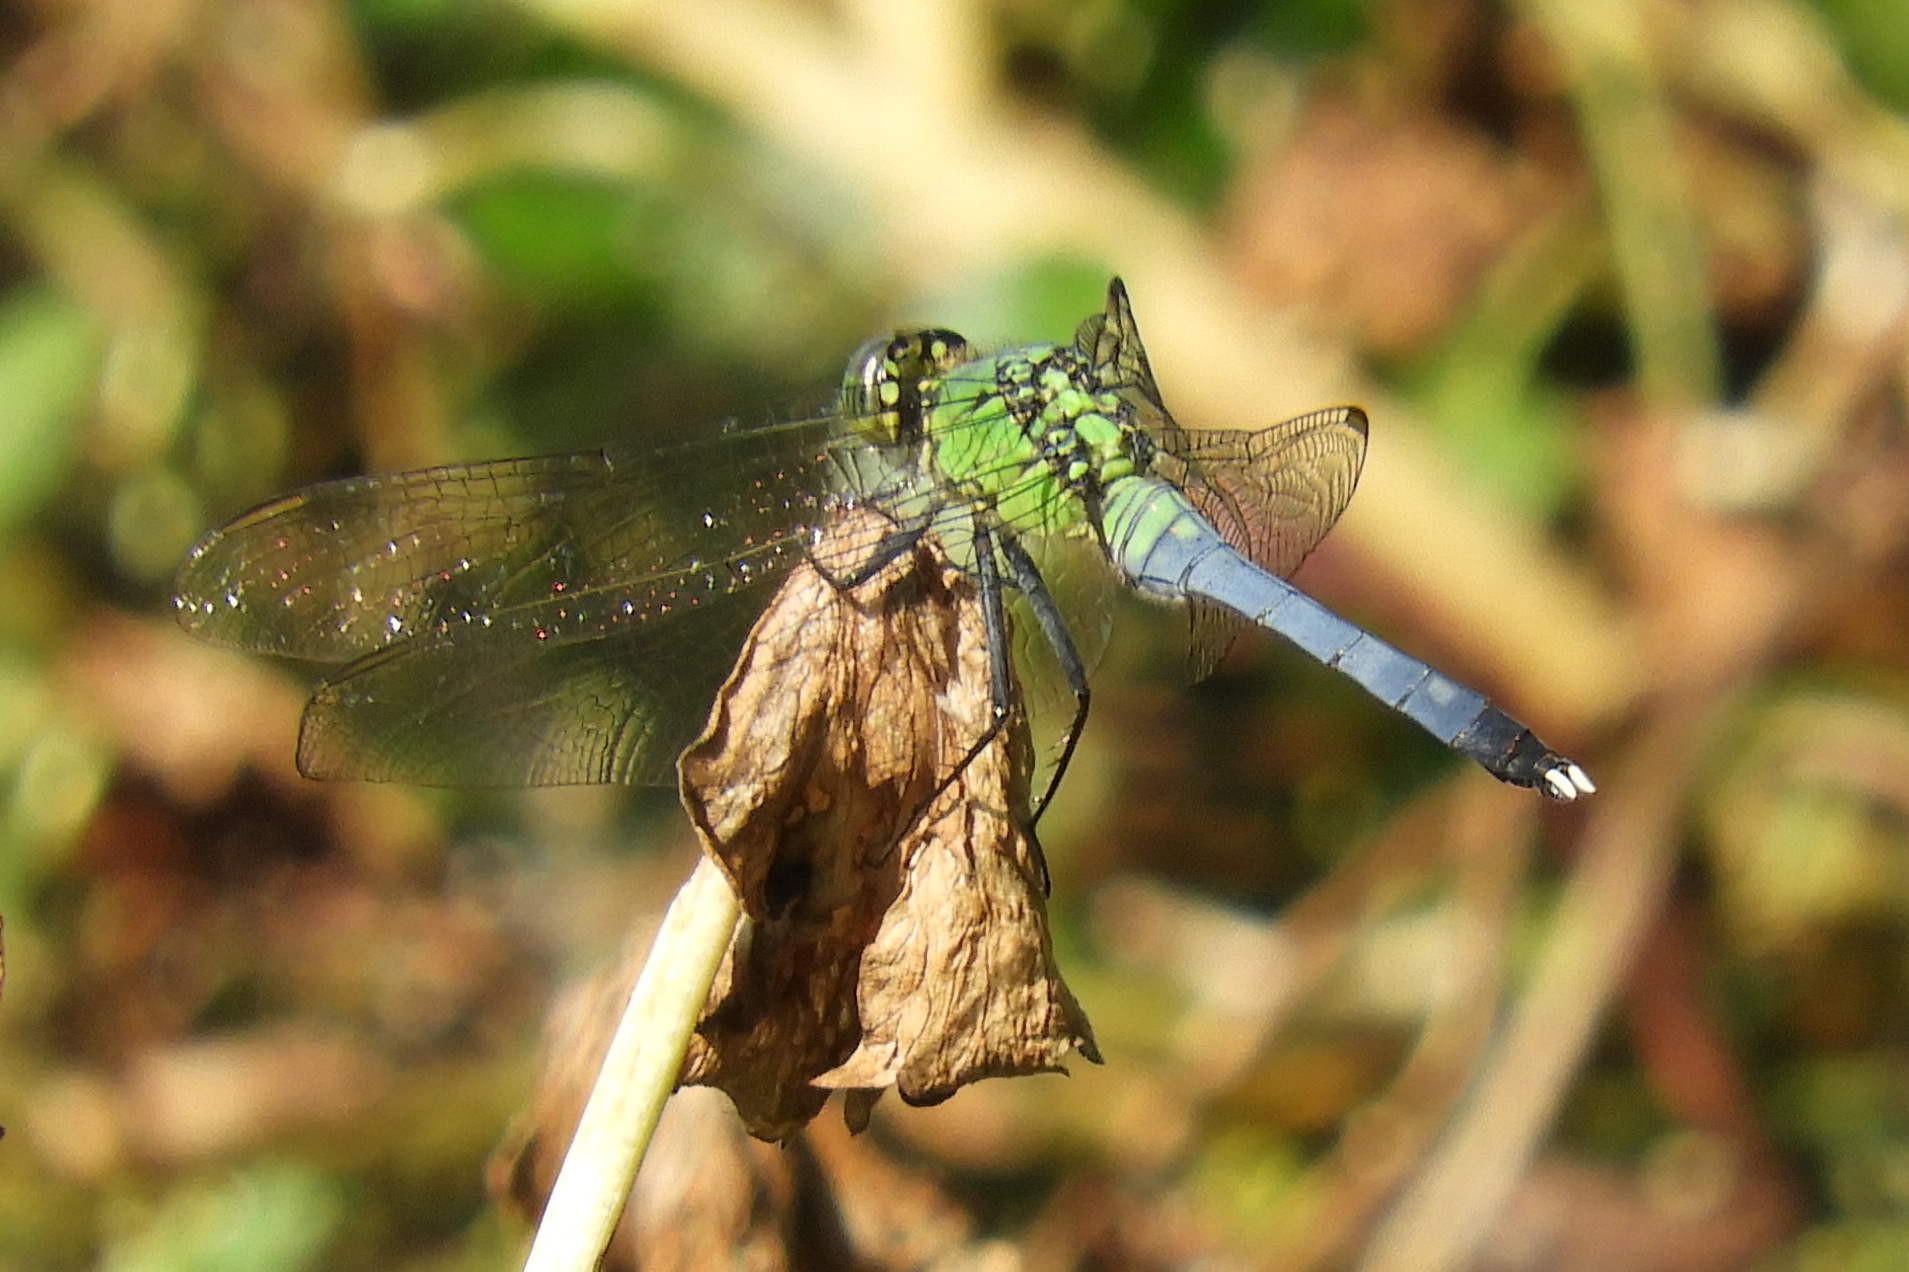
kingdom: Animalia
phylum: Arthropoda
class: Insecta
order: Odonata
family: Libellulidae
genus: Erythemis
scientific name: Erythemis simplicicollis
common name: Eastern pondhawk
